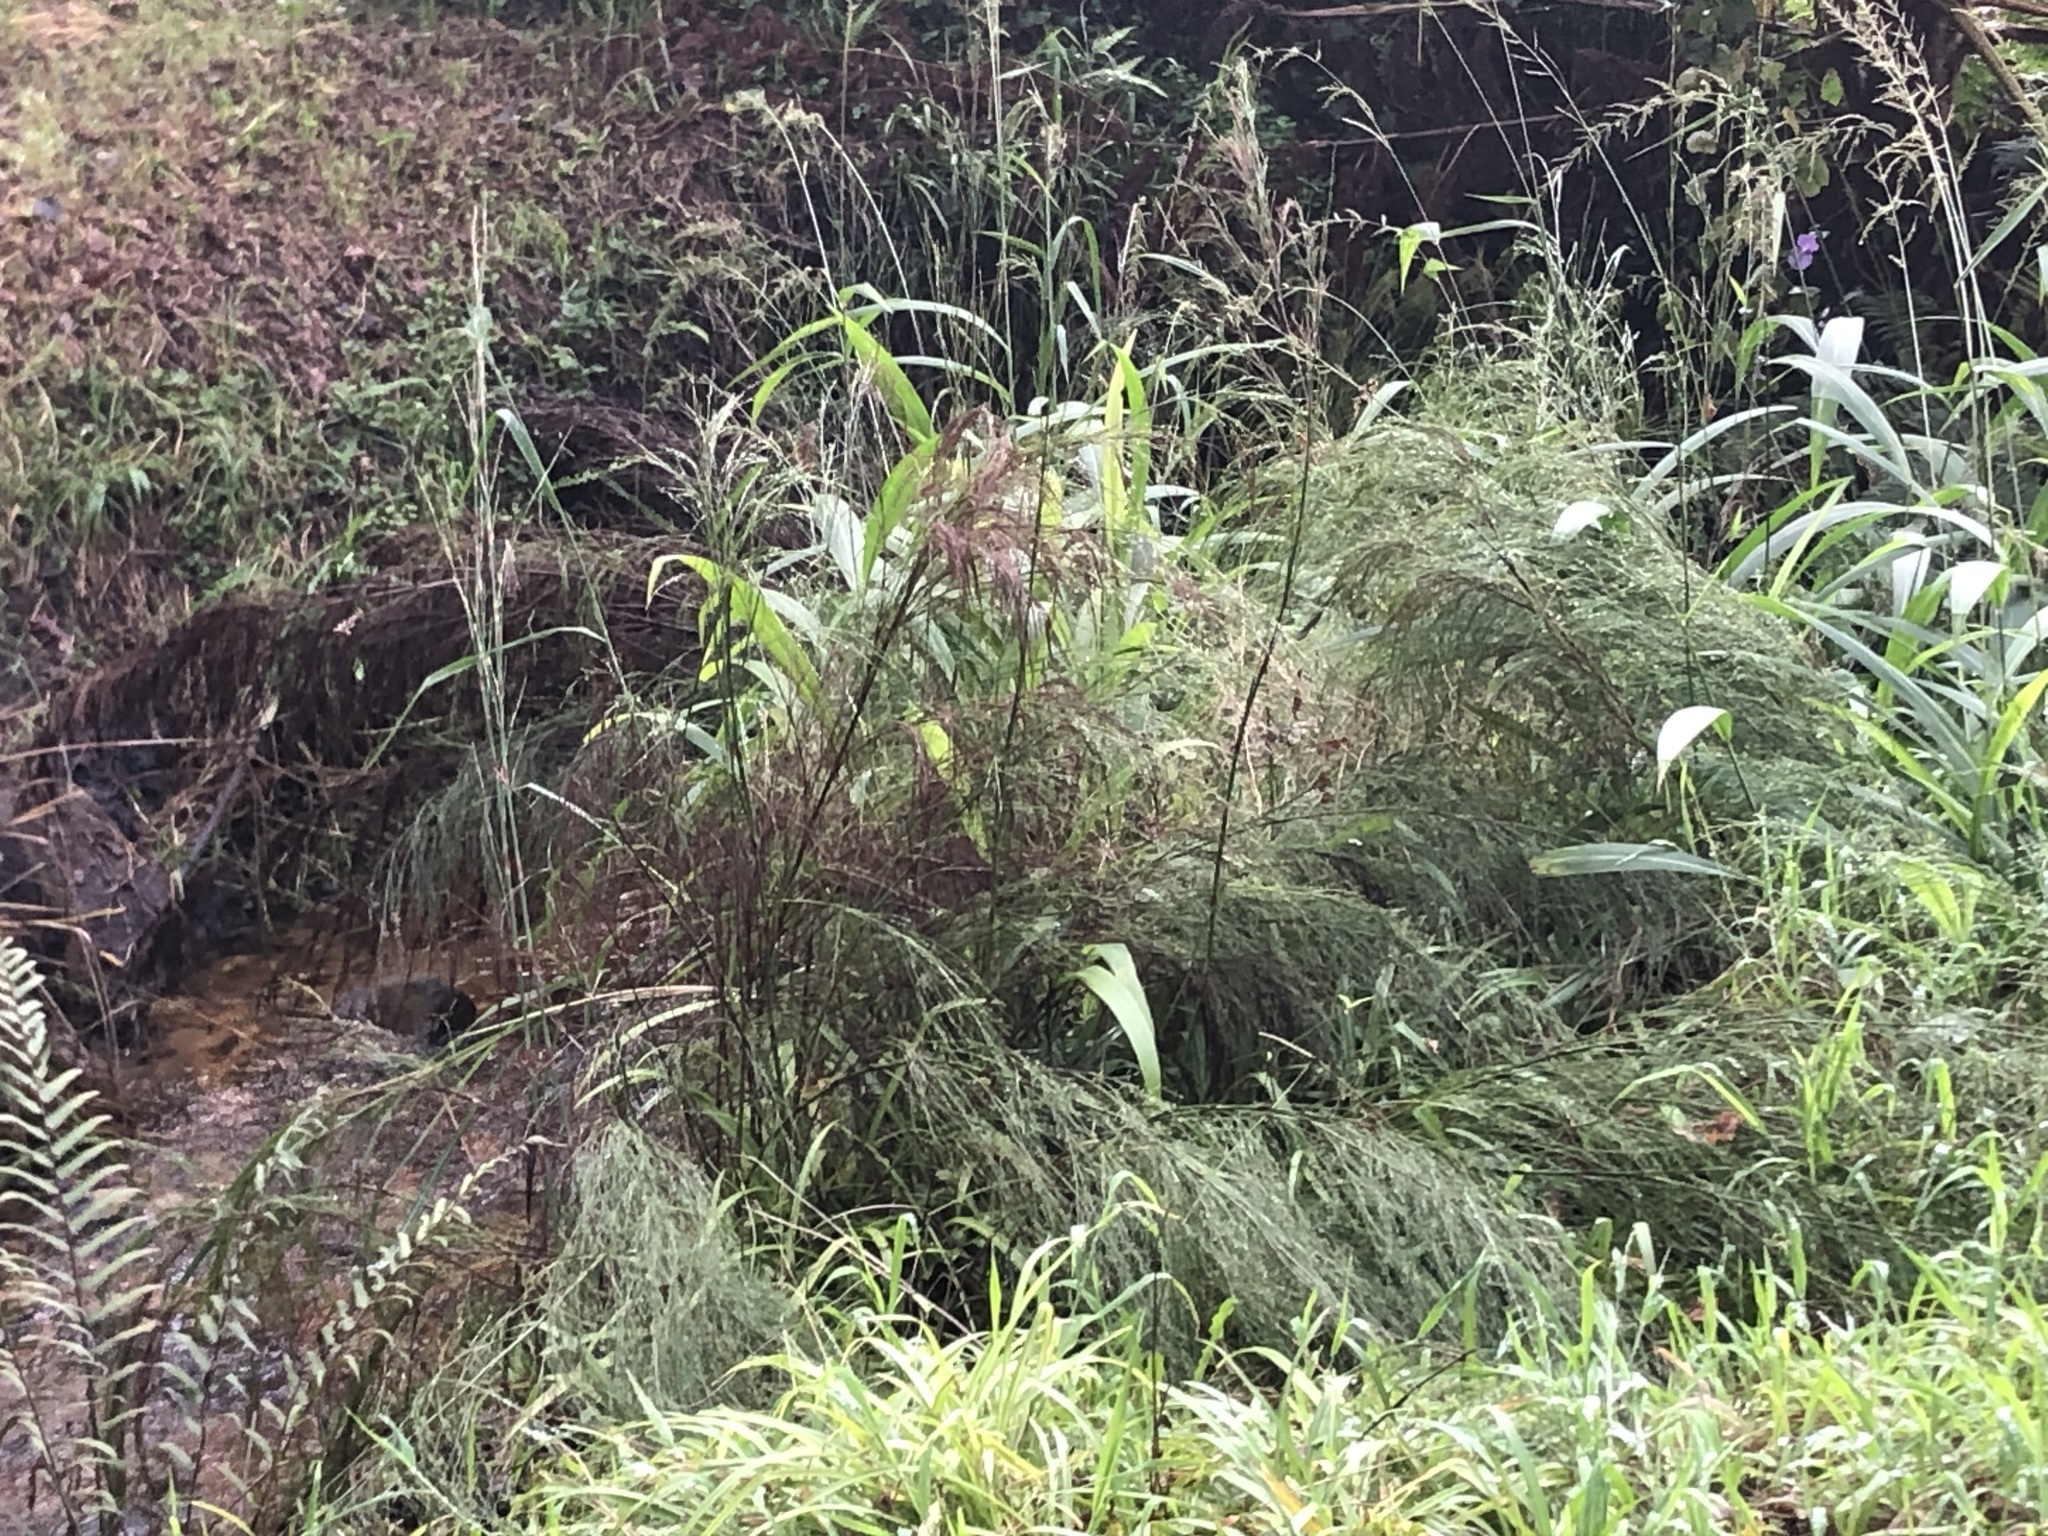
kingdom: Plantae
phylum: Tracheophyta
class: Liliopsida
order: Poales
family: Restionaceae
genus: Restio
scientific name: Restio paniculatus
